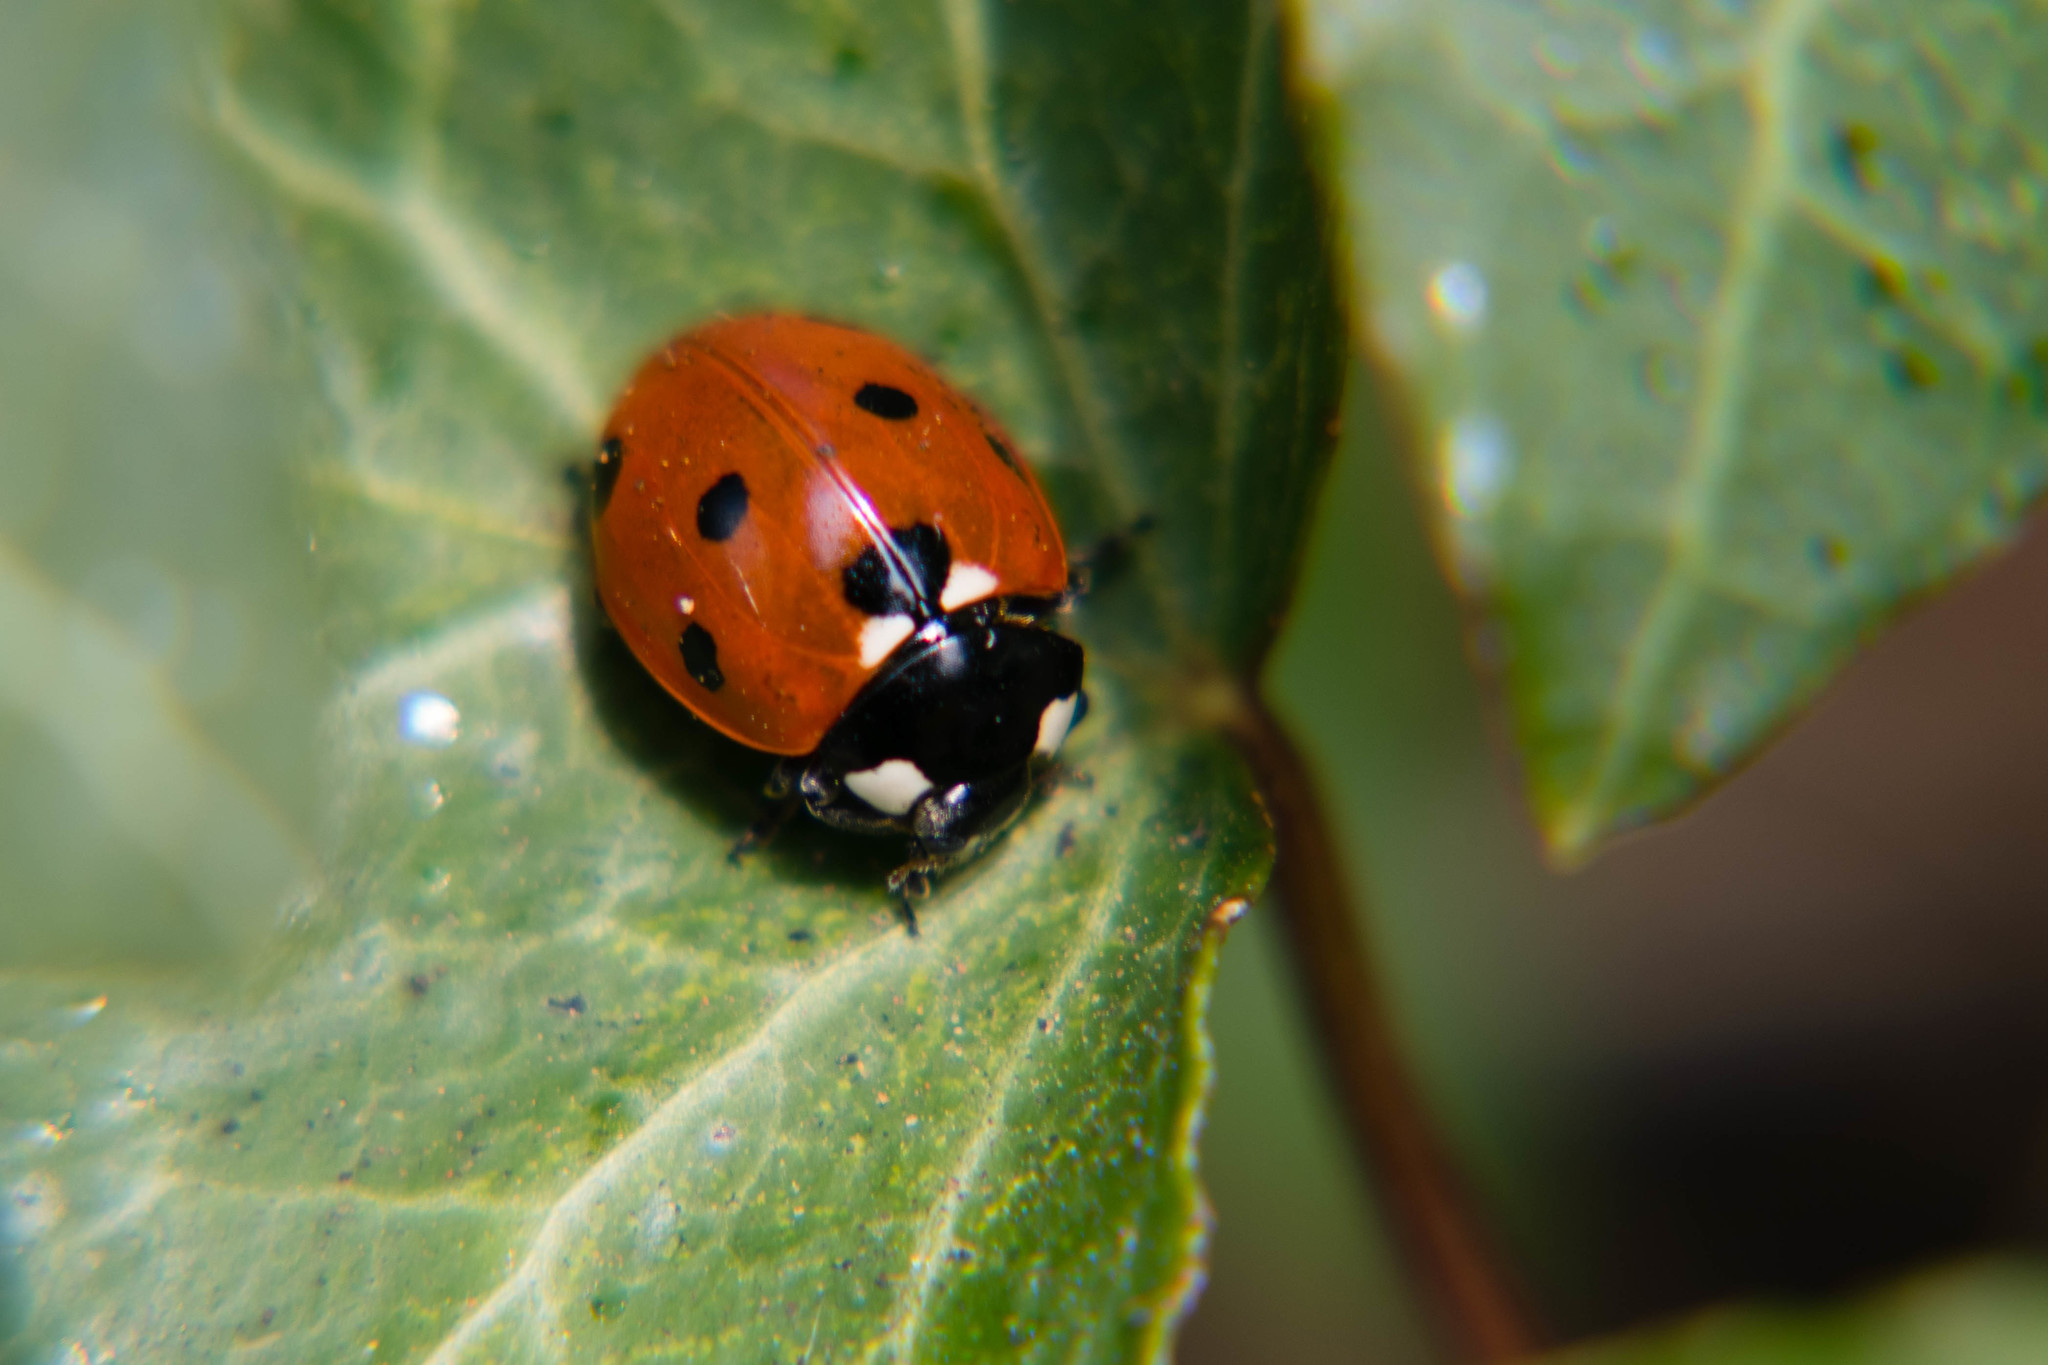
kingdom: Animalia
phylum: Arthropoda
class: Insecta
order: Coleoptera
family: Coccinellidae
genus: Coccinella
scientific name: Coccinella septempunctata
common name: Sevenspotted lady beetle
